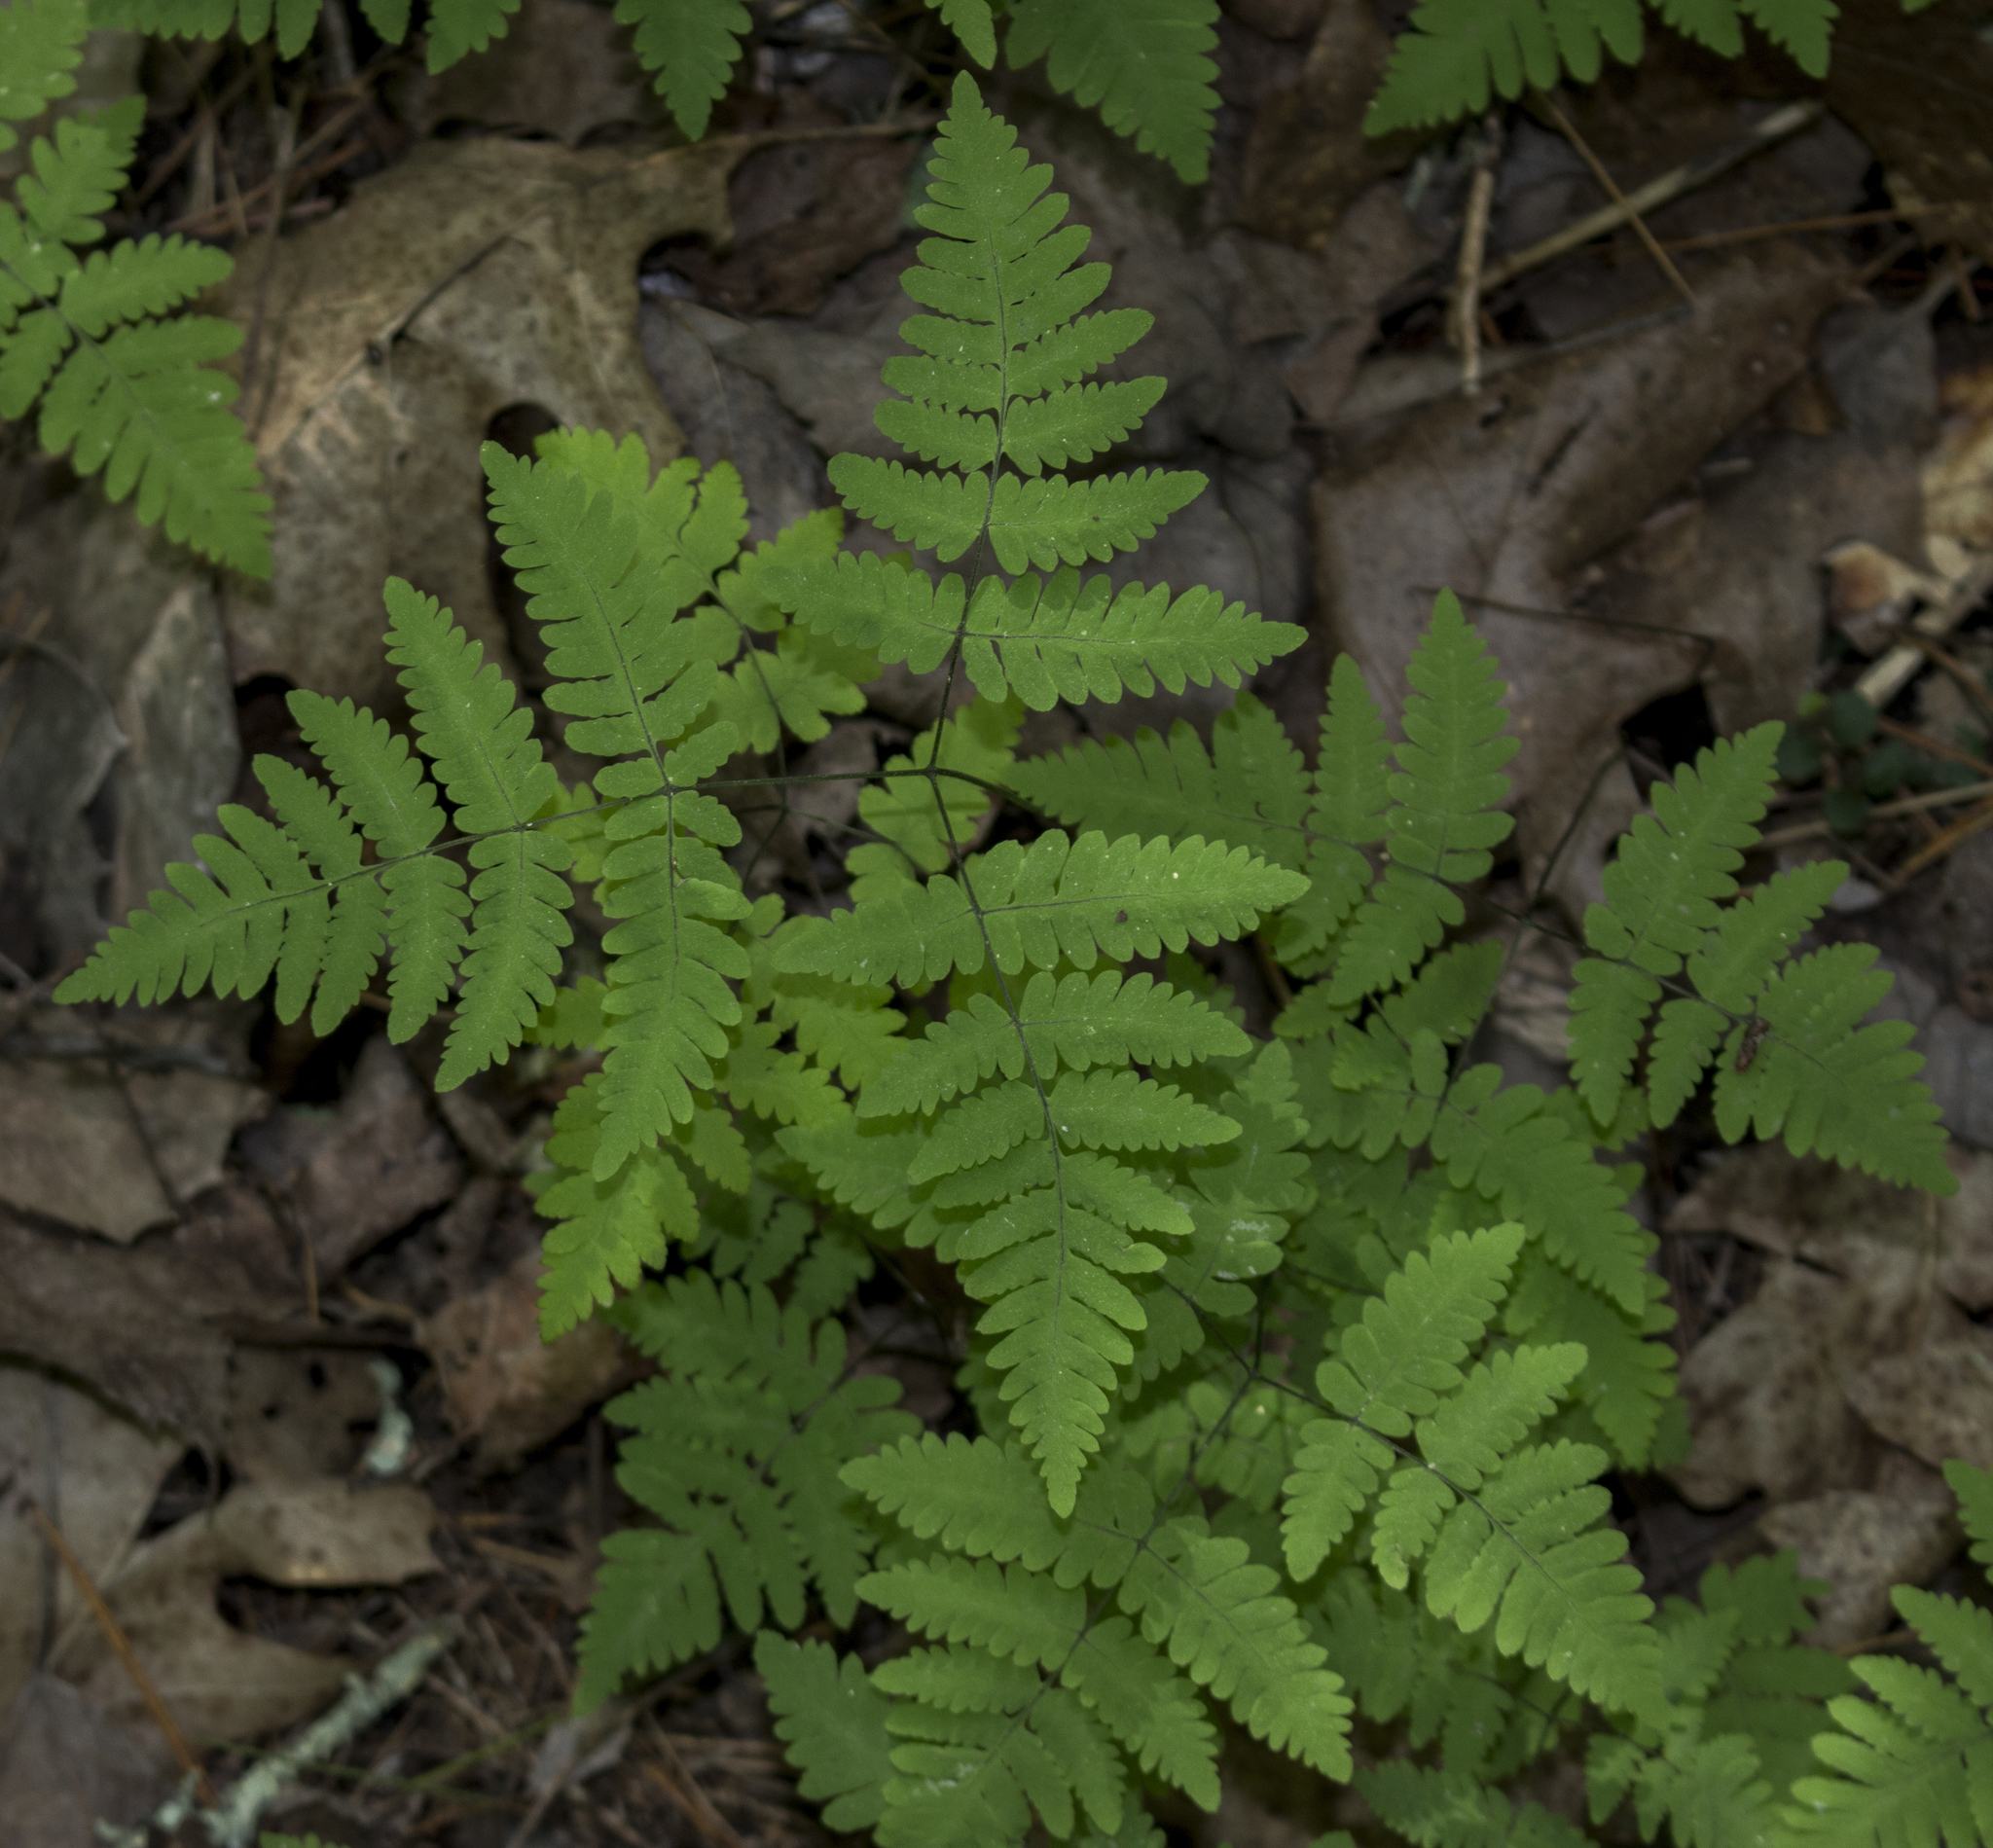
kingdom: Plantae
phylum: Tracheophyta
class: Polypodiopsida
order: Polypodiales
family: Cystopteridaceae
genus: Gymnocarpium
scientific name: Gymnocarpium dryopteris
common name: Oak fern
